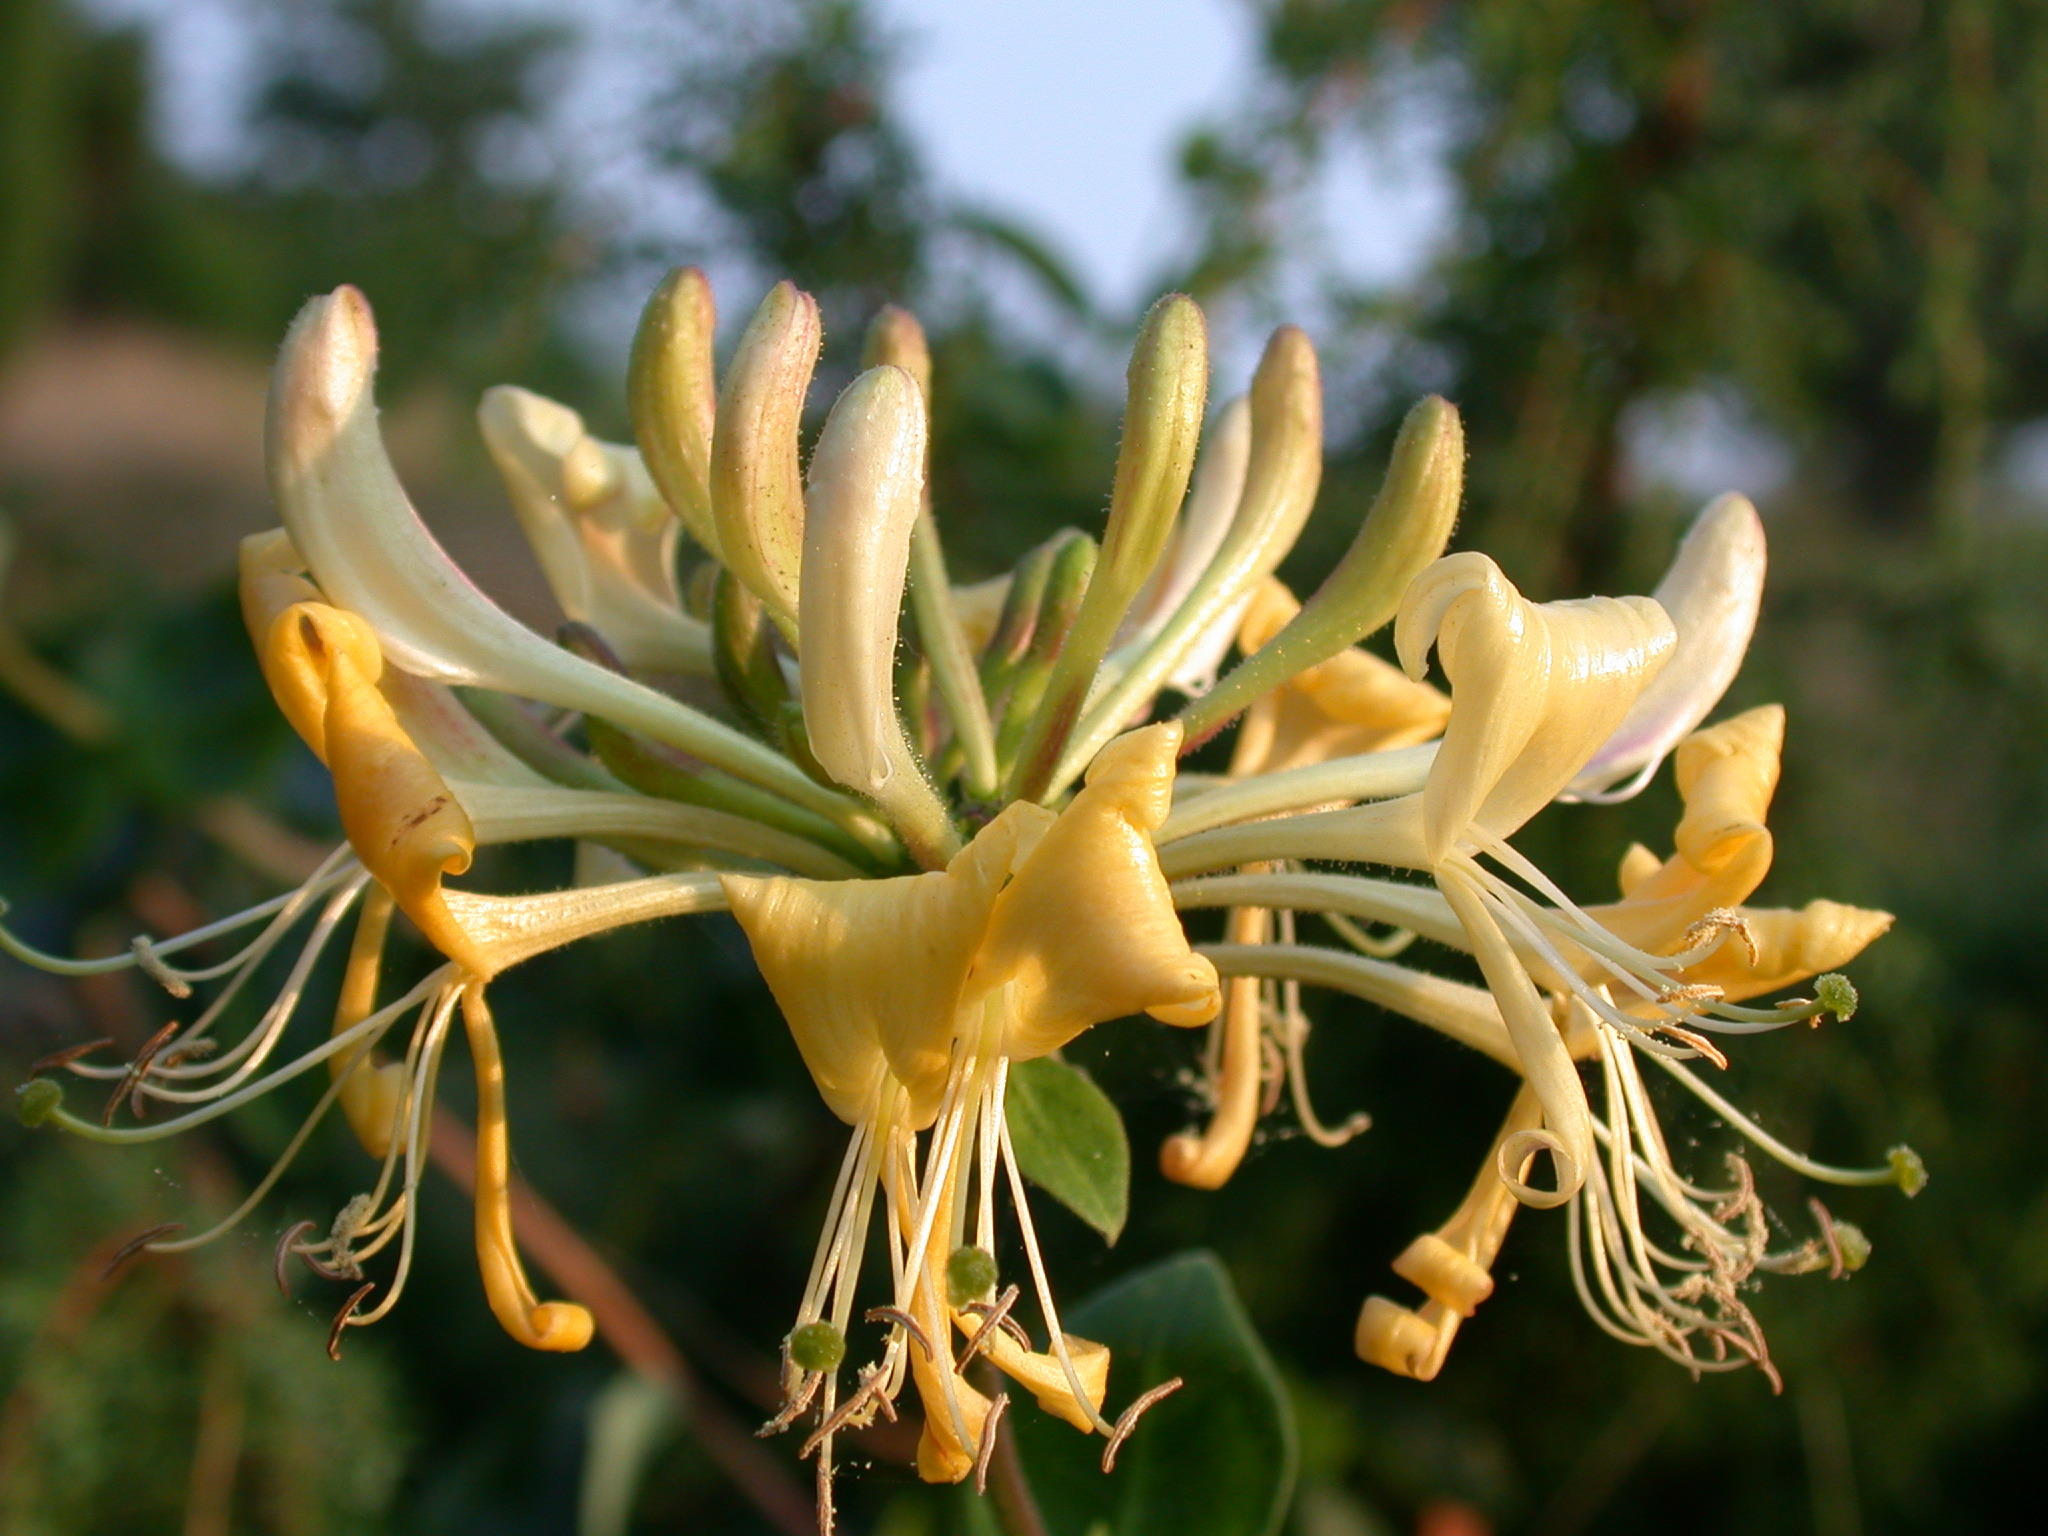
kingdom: Plantae
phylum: Tracheophyta
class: Magnoliopsida
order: Dipsacales
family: Caprifoliaceae
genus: Lonicera
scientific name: Lonicera periclymenum
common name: European honeysuckle
